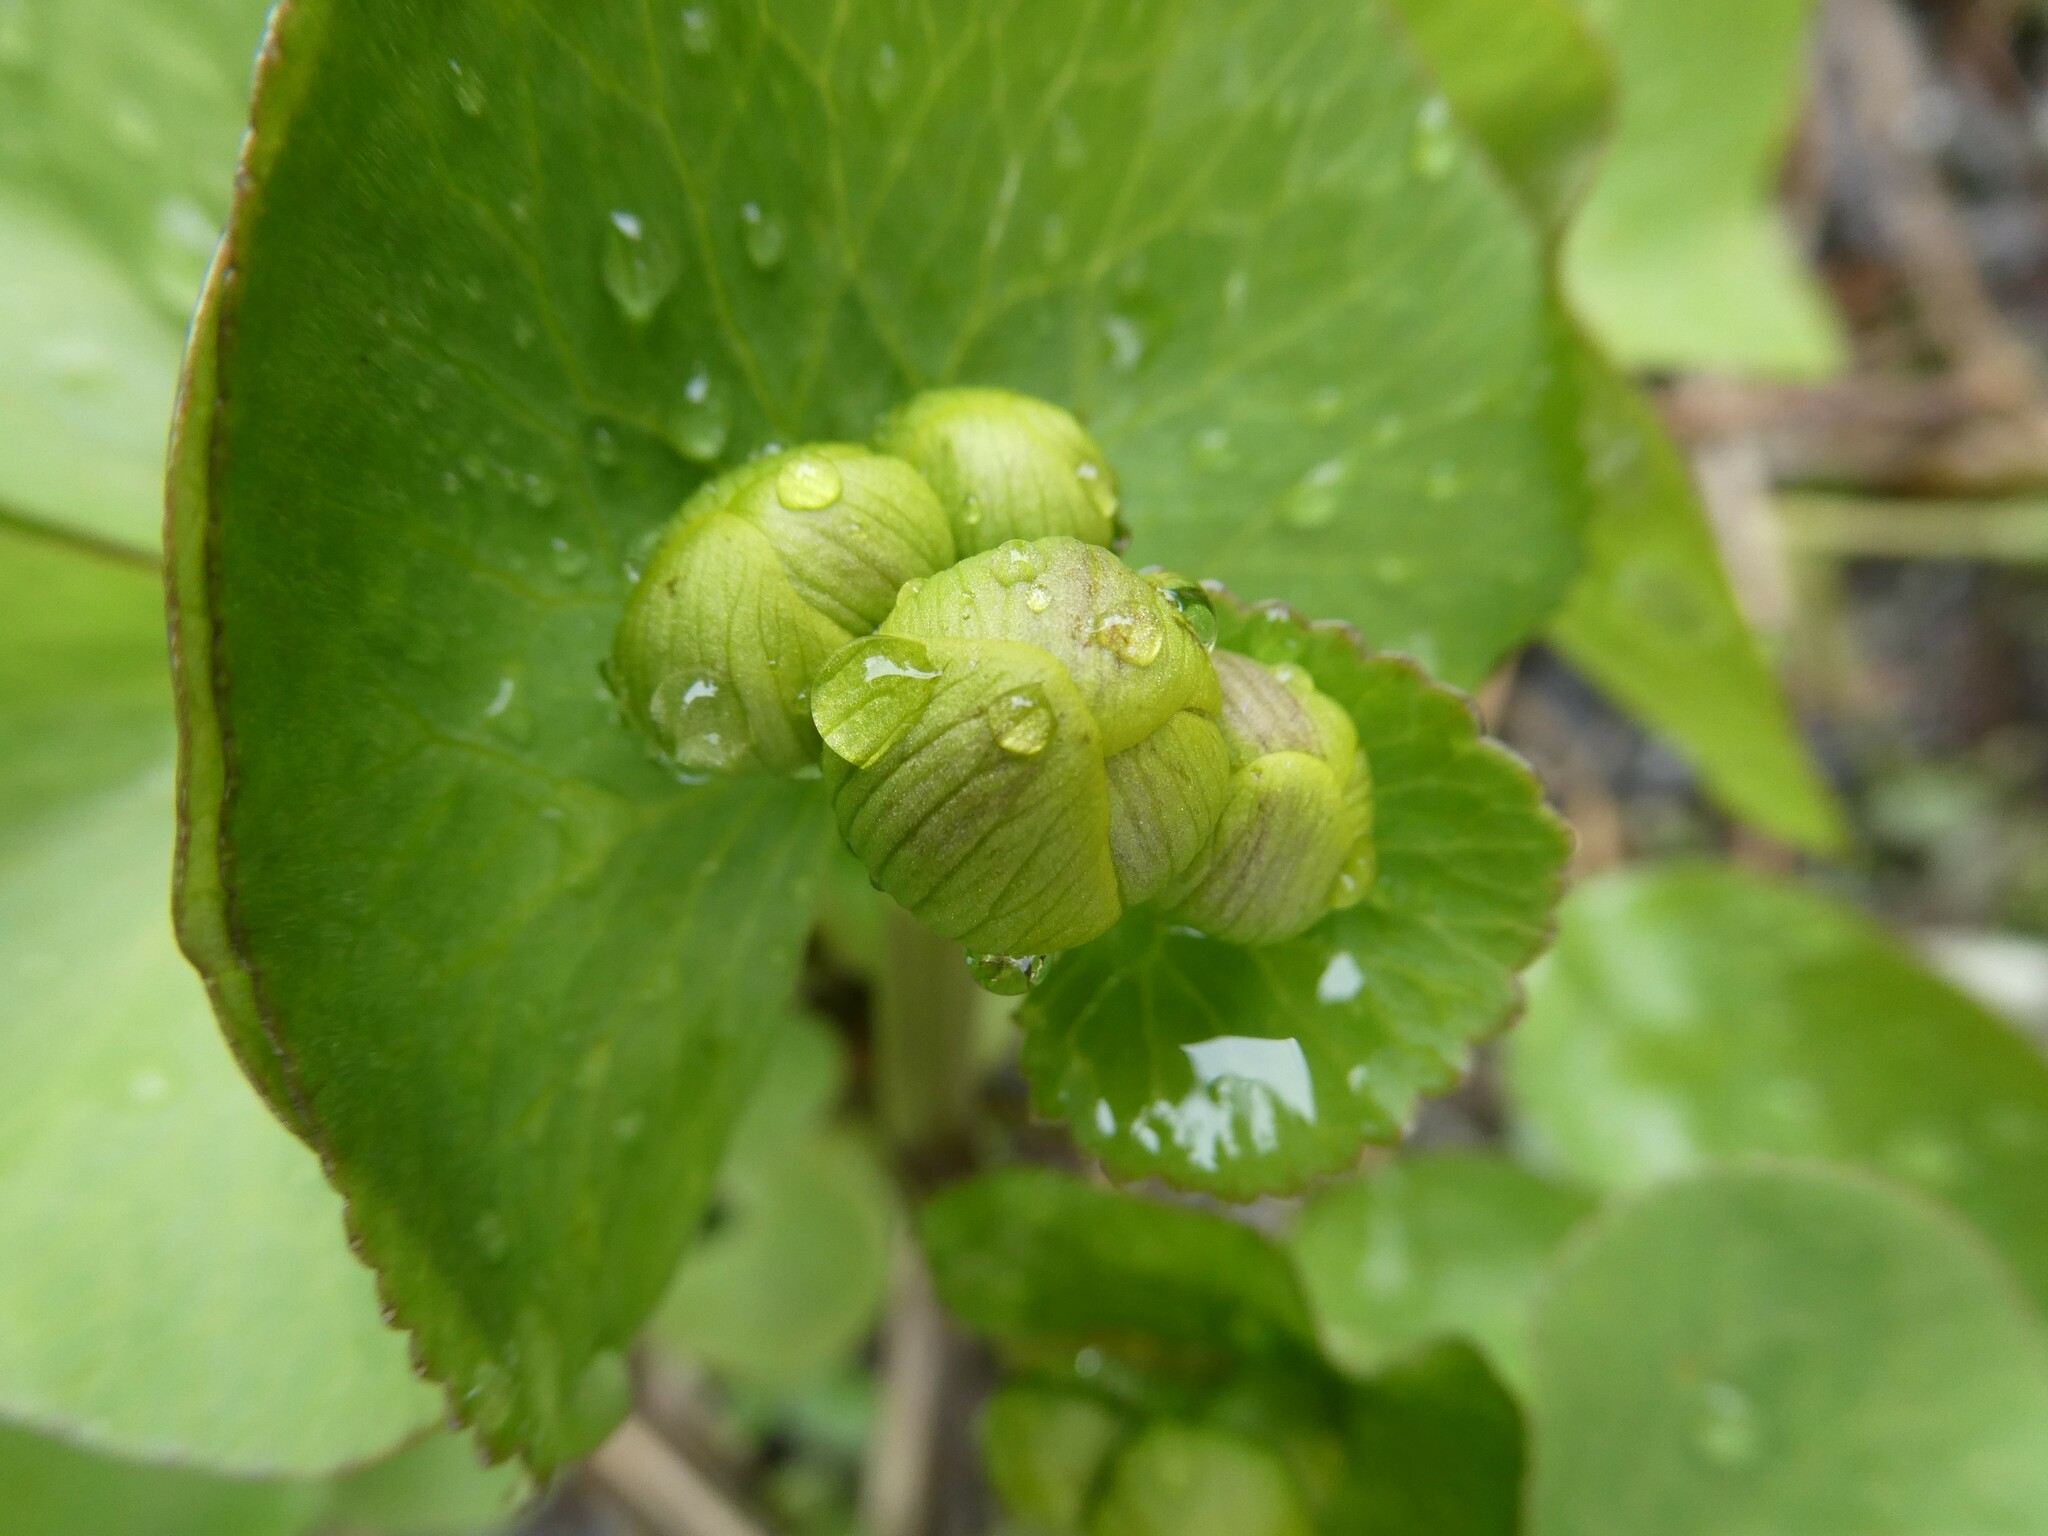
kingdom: Plantae
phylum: Tracheophyta
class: Magnoliopsida
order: Ranunculales
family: Ranunculaceae
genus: Caltha
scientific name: Caltha palustris
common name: Marsh marigold
